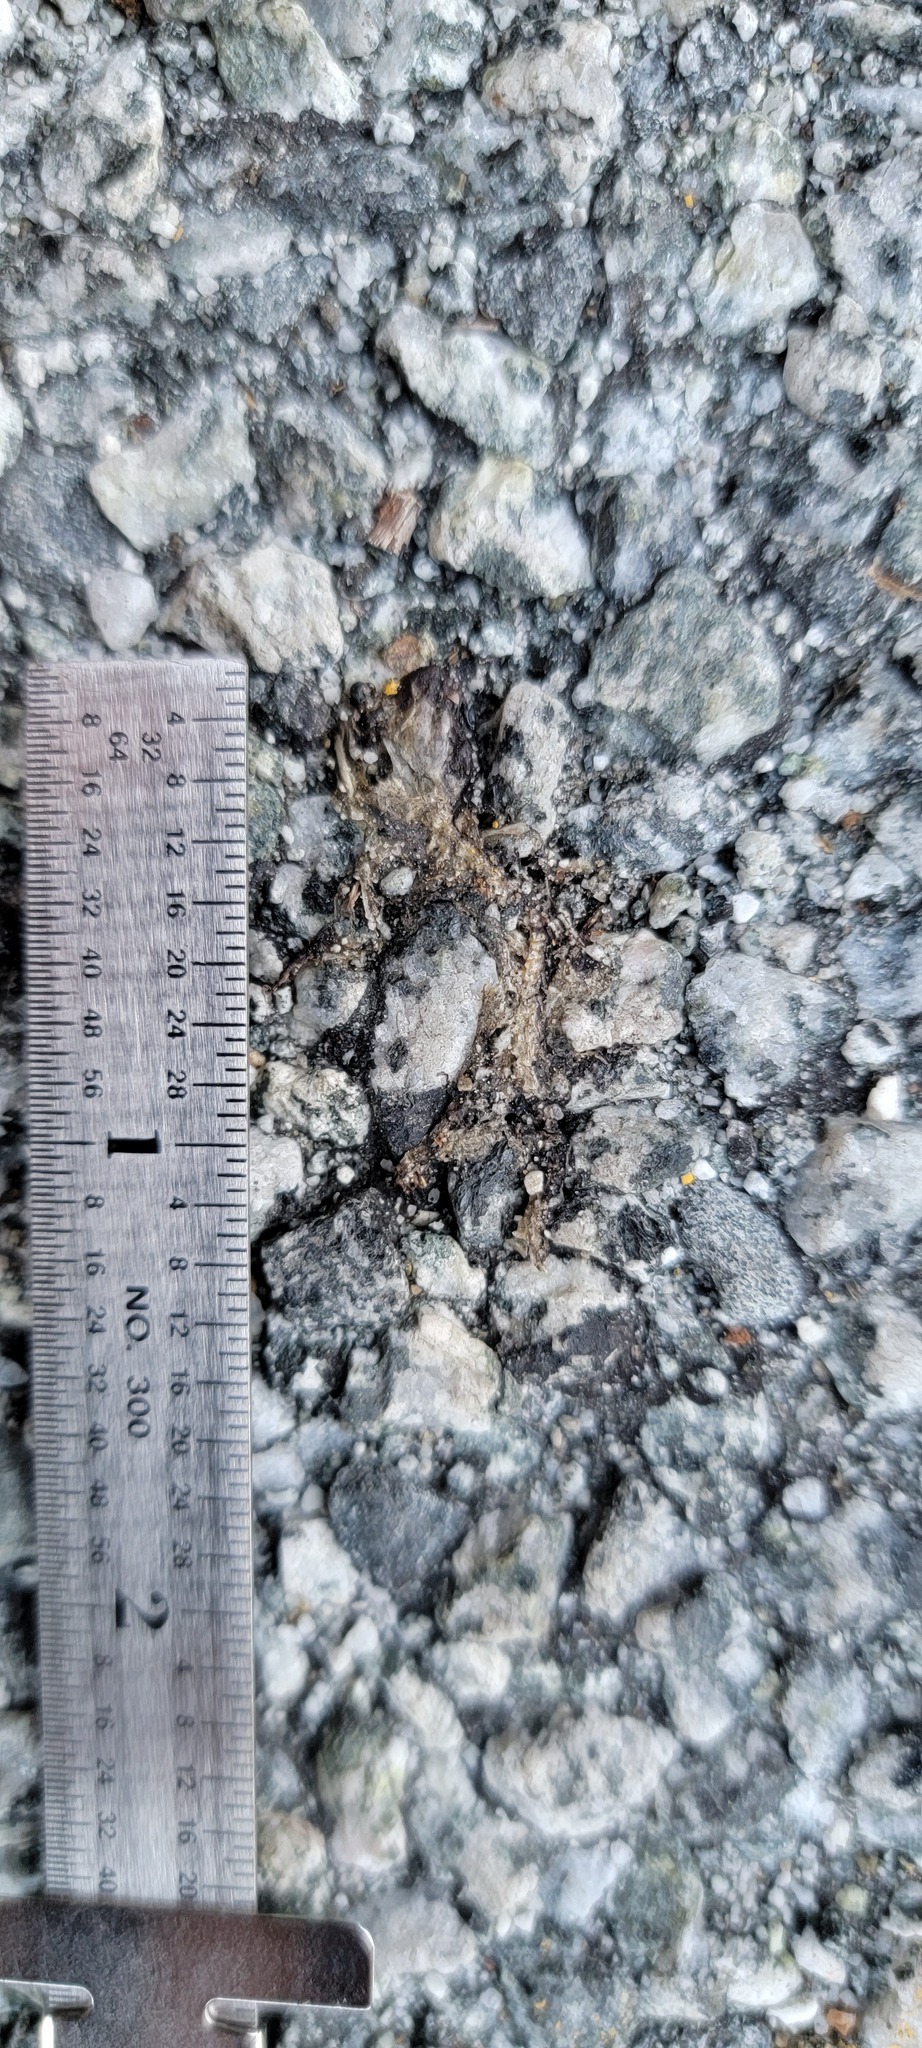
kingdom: Animalia
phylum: Chordata
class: Amphibia
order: Caudata
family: Salamandridae
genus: Taricha
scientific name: Taricha
